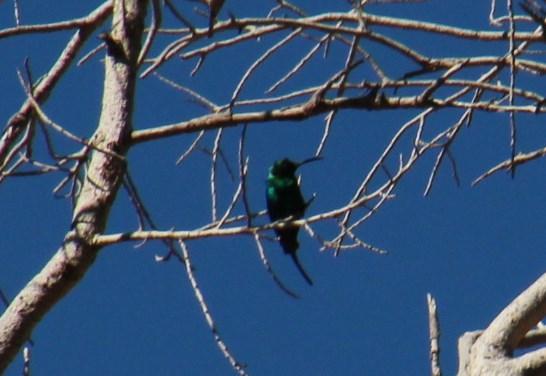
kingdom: Animalia
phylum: Chordata
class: Aves
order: Passeriformes
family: Nectariniidae
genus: Nectarinia
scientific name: Nectarinia famosa
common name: Malachite sunbird
